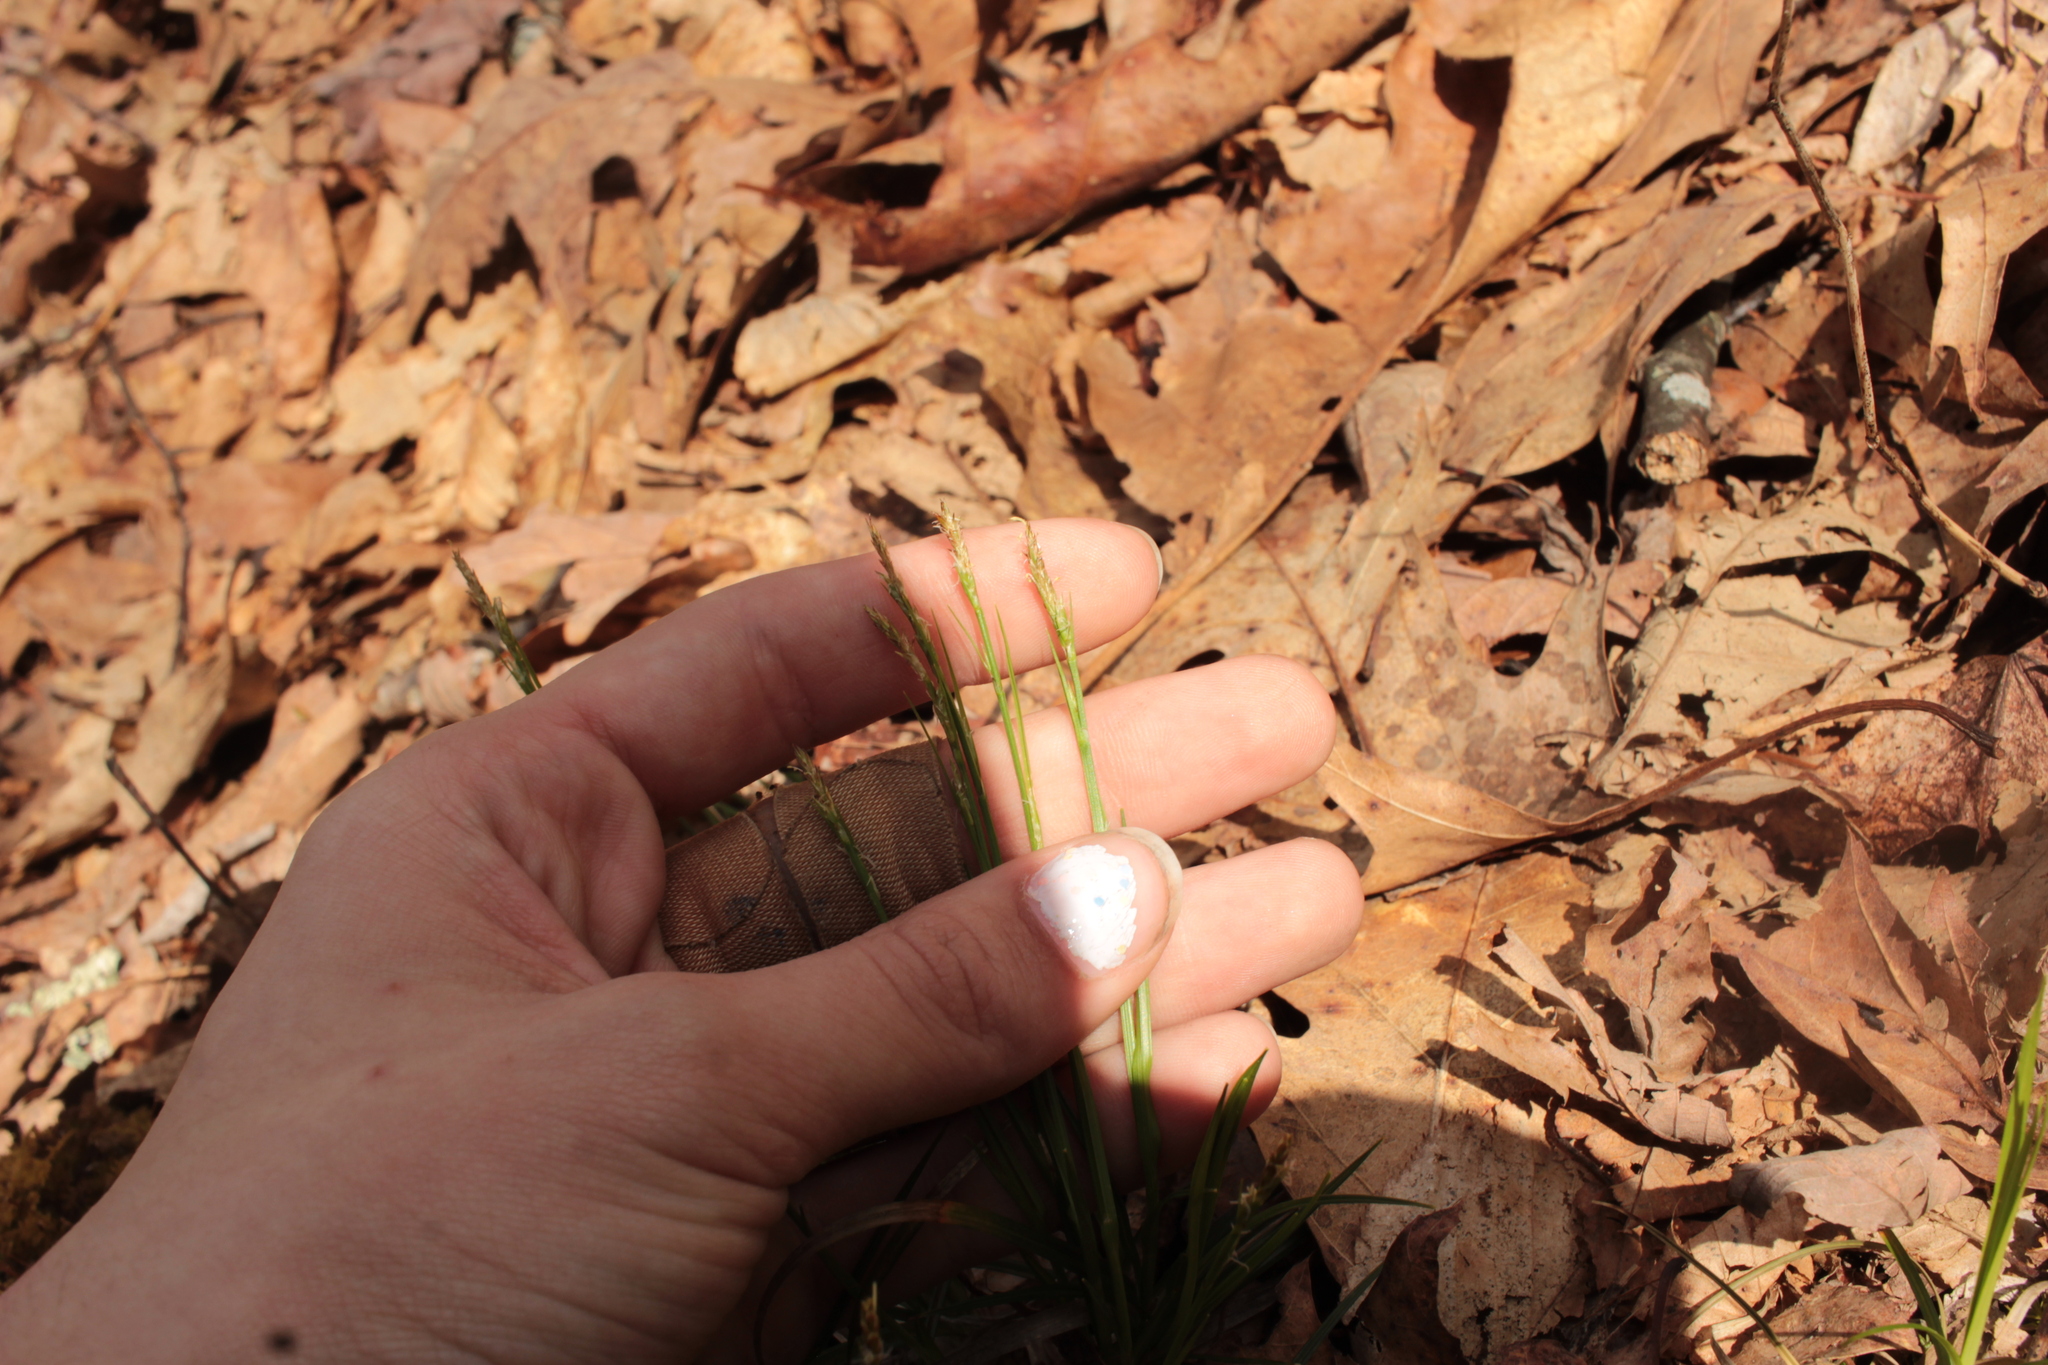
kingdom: Plantae
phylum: Tracheophyta
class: Liliopsida
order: Poales
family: Cyperaceae
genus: Carex
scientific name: Carex
